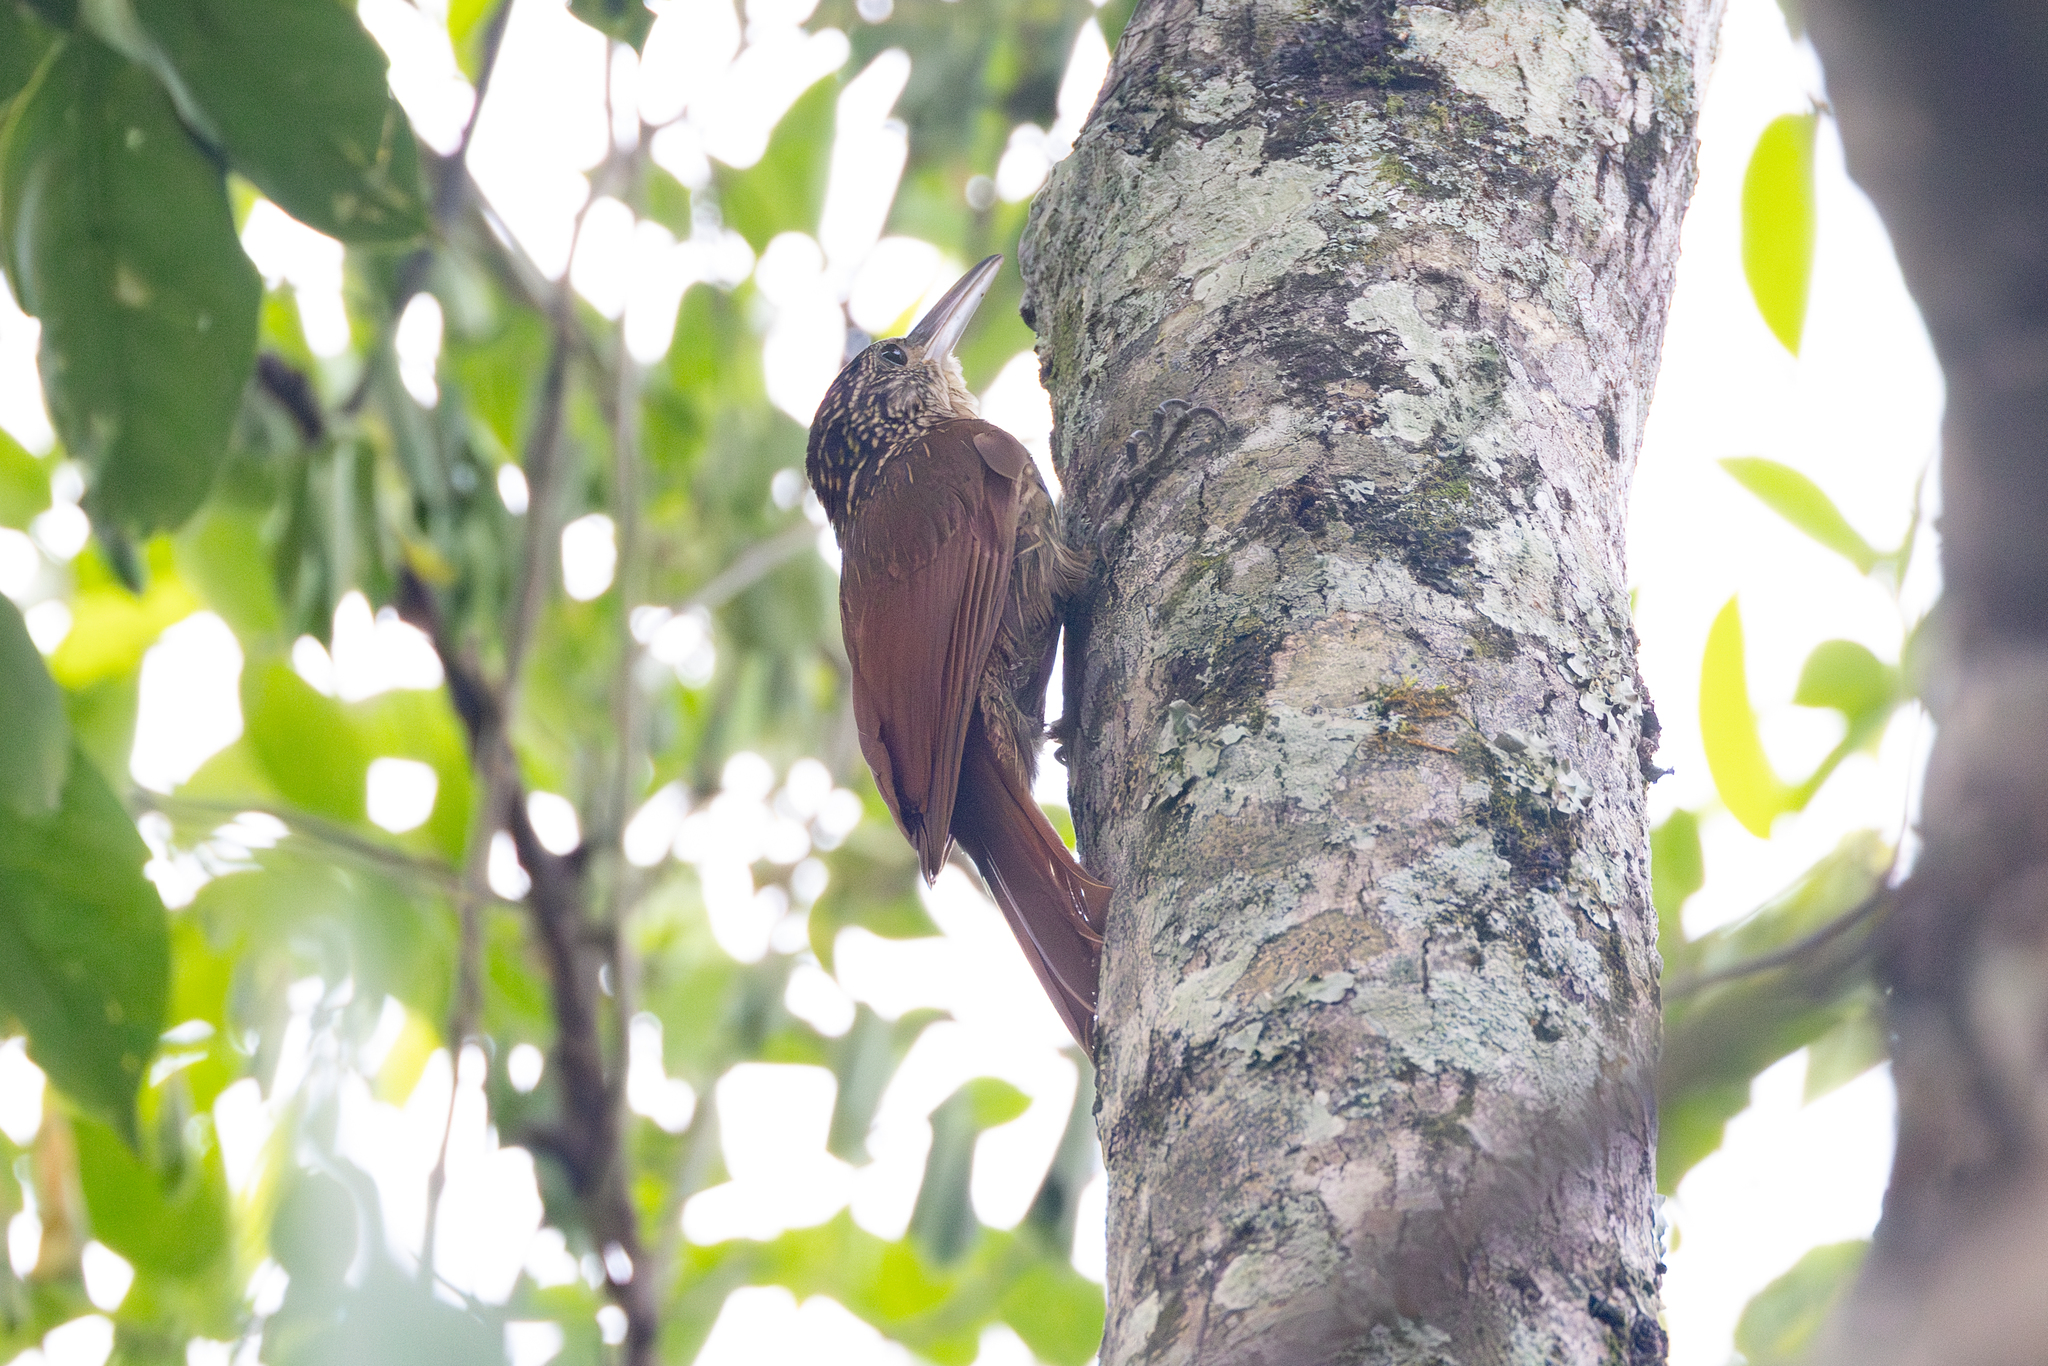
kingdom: Animalia
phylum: Chordata
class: Aves
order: Passeriformes
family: Furnariidae
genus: Xiphorhynchus
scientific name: Xiphorhynchus flavigaster
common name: Ivory-billed woodcreeper
